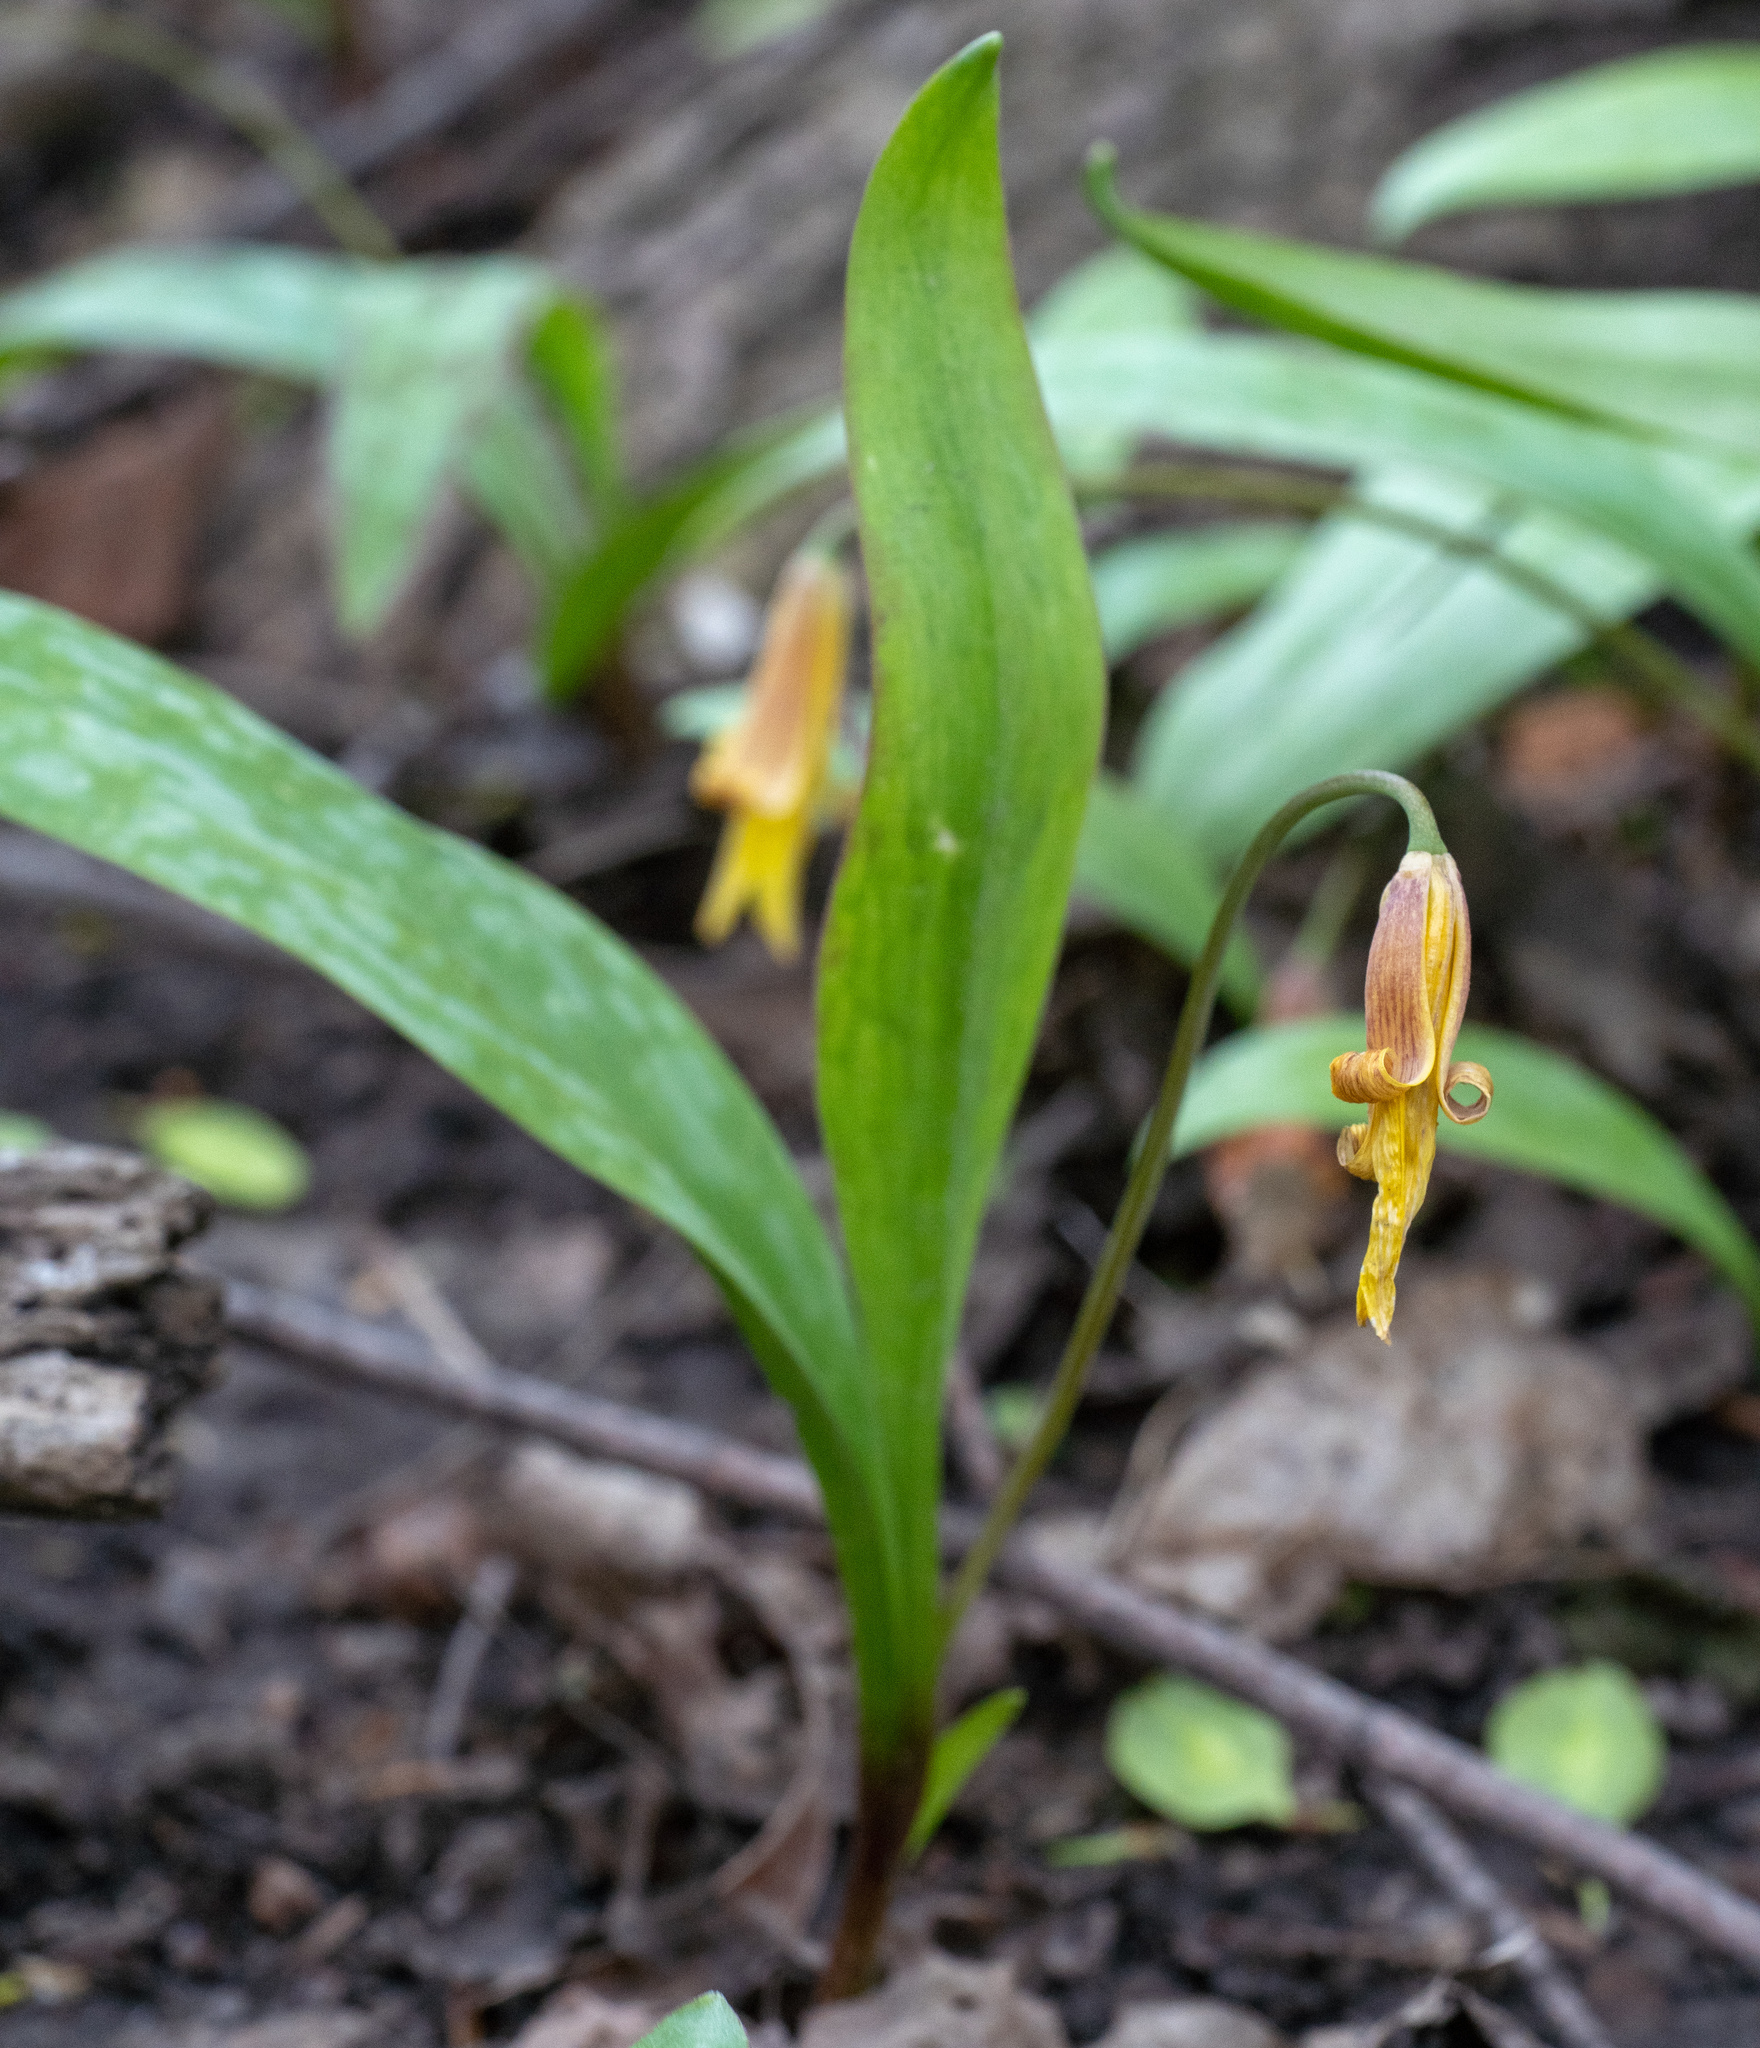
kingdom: Plantae
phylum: Tracheophyta
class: Liliopsida
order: Liliales
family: Liliaceae
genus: Erythronium
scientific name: Erythronium americanum
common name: Yellow adder's-tongue
